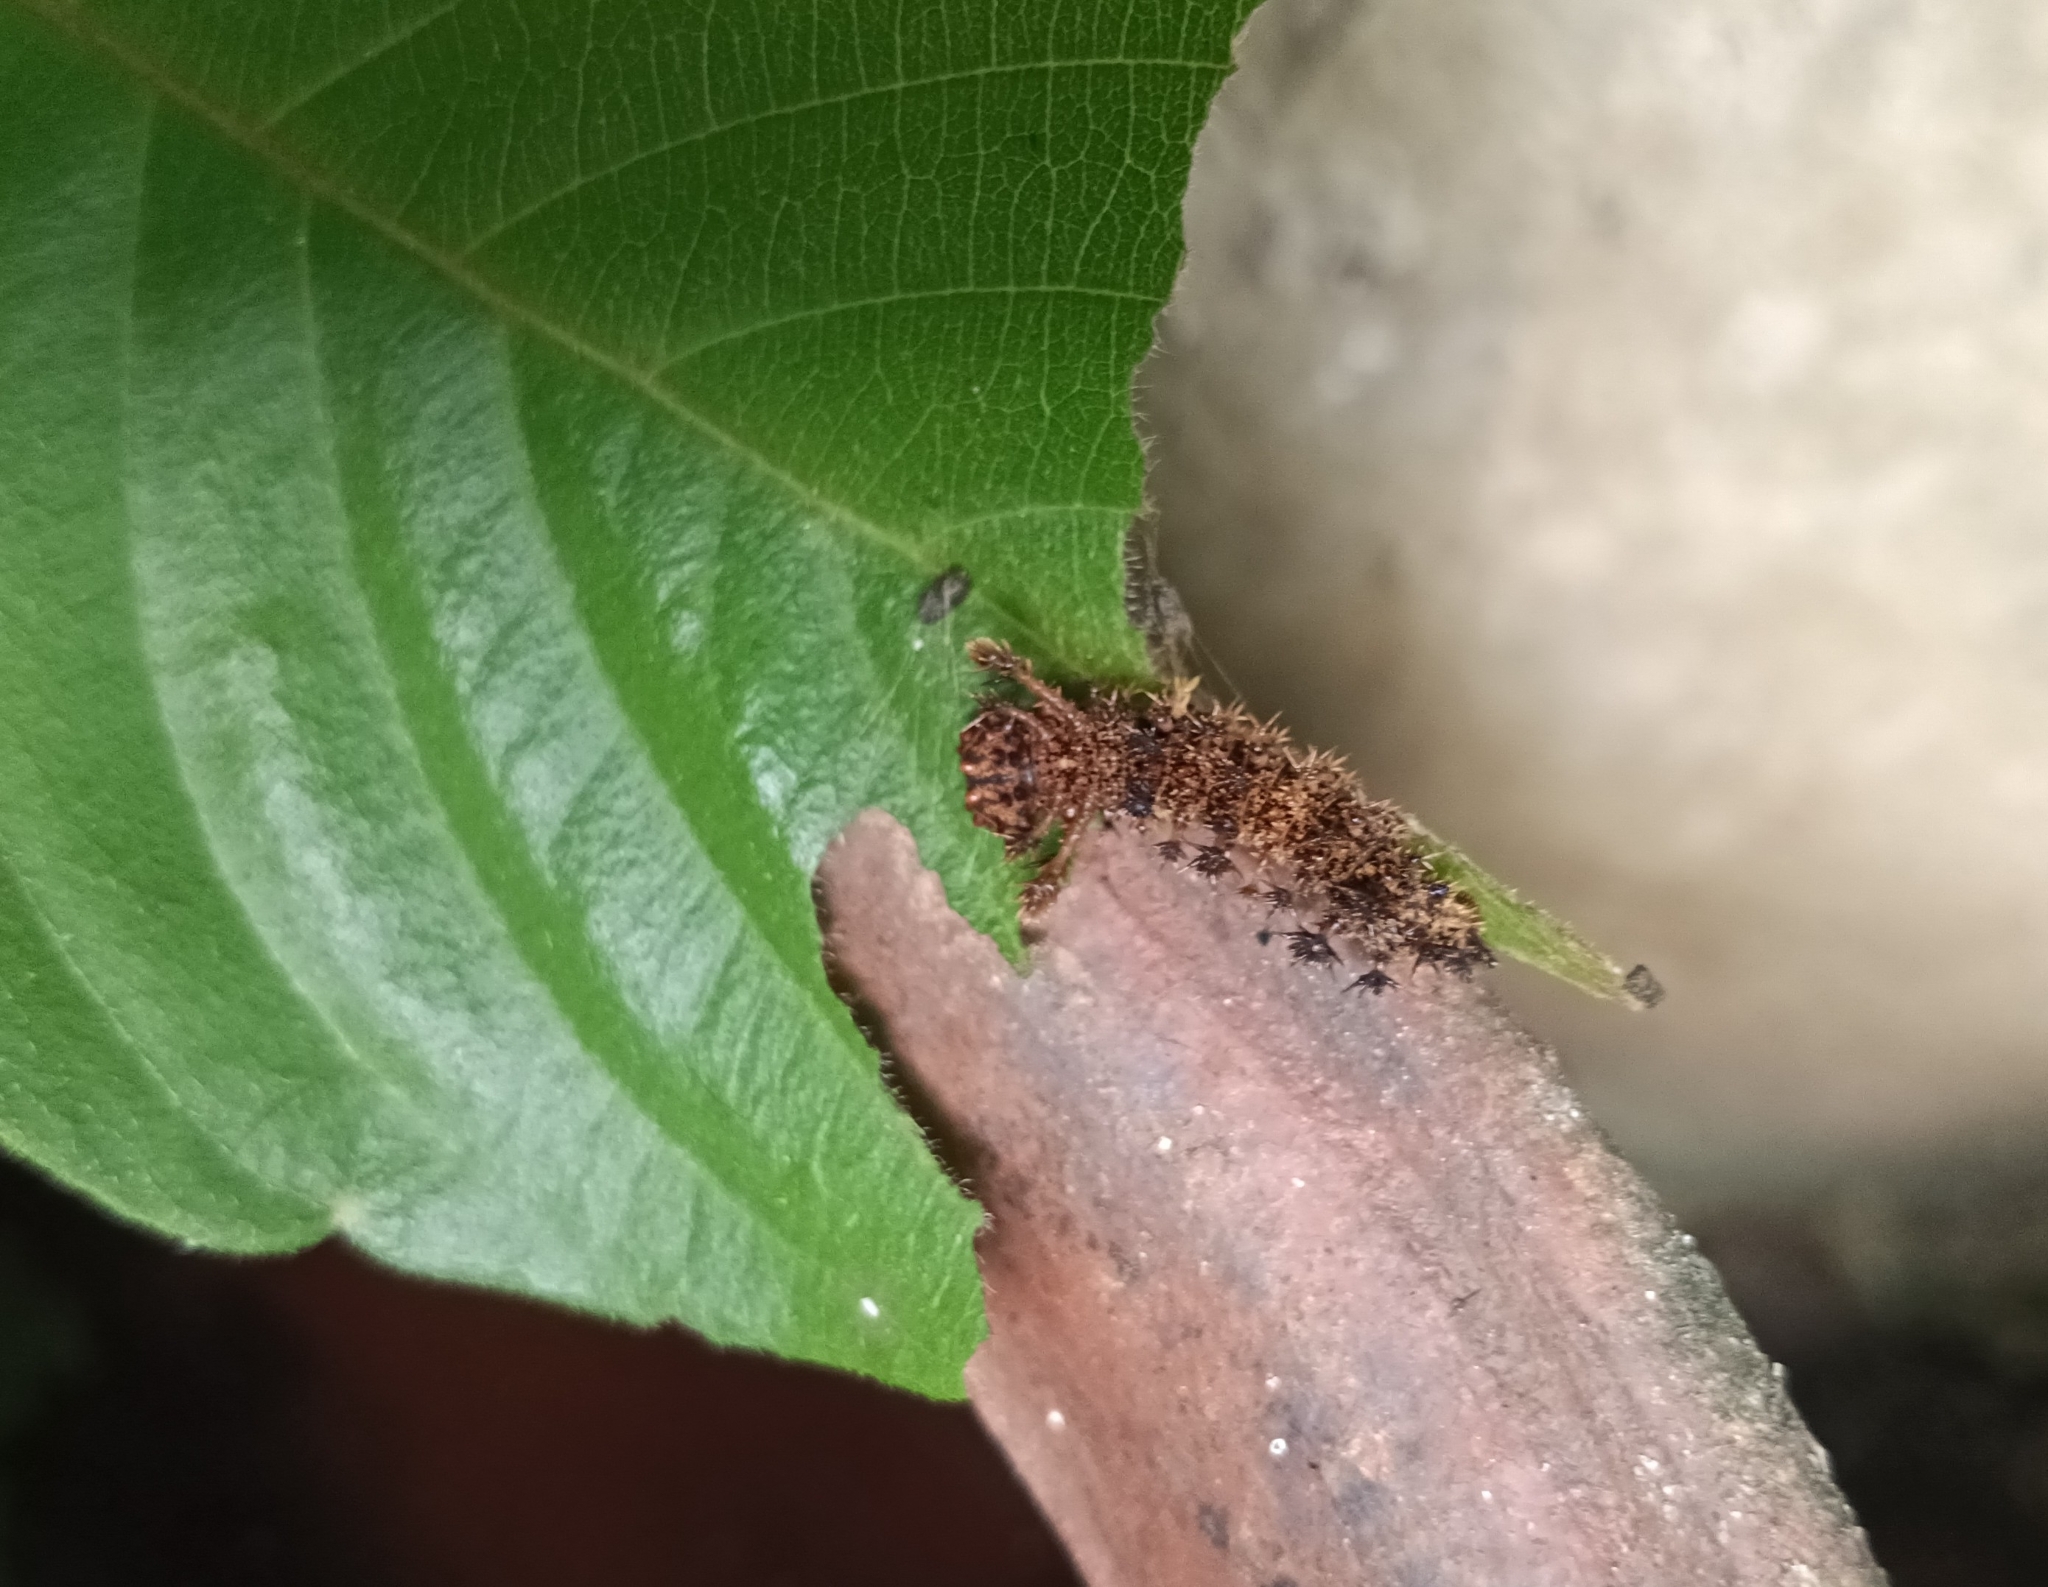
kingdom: Animalia
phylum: Arthropoda
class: Insecta
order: Lepidoptera
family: Nymphalidae
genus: Limenitis
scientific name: Limenitis Moduza procris
